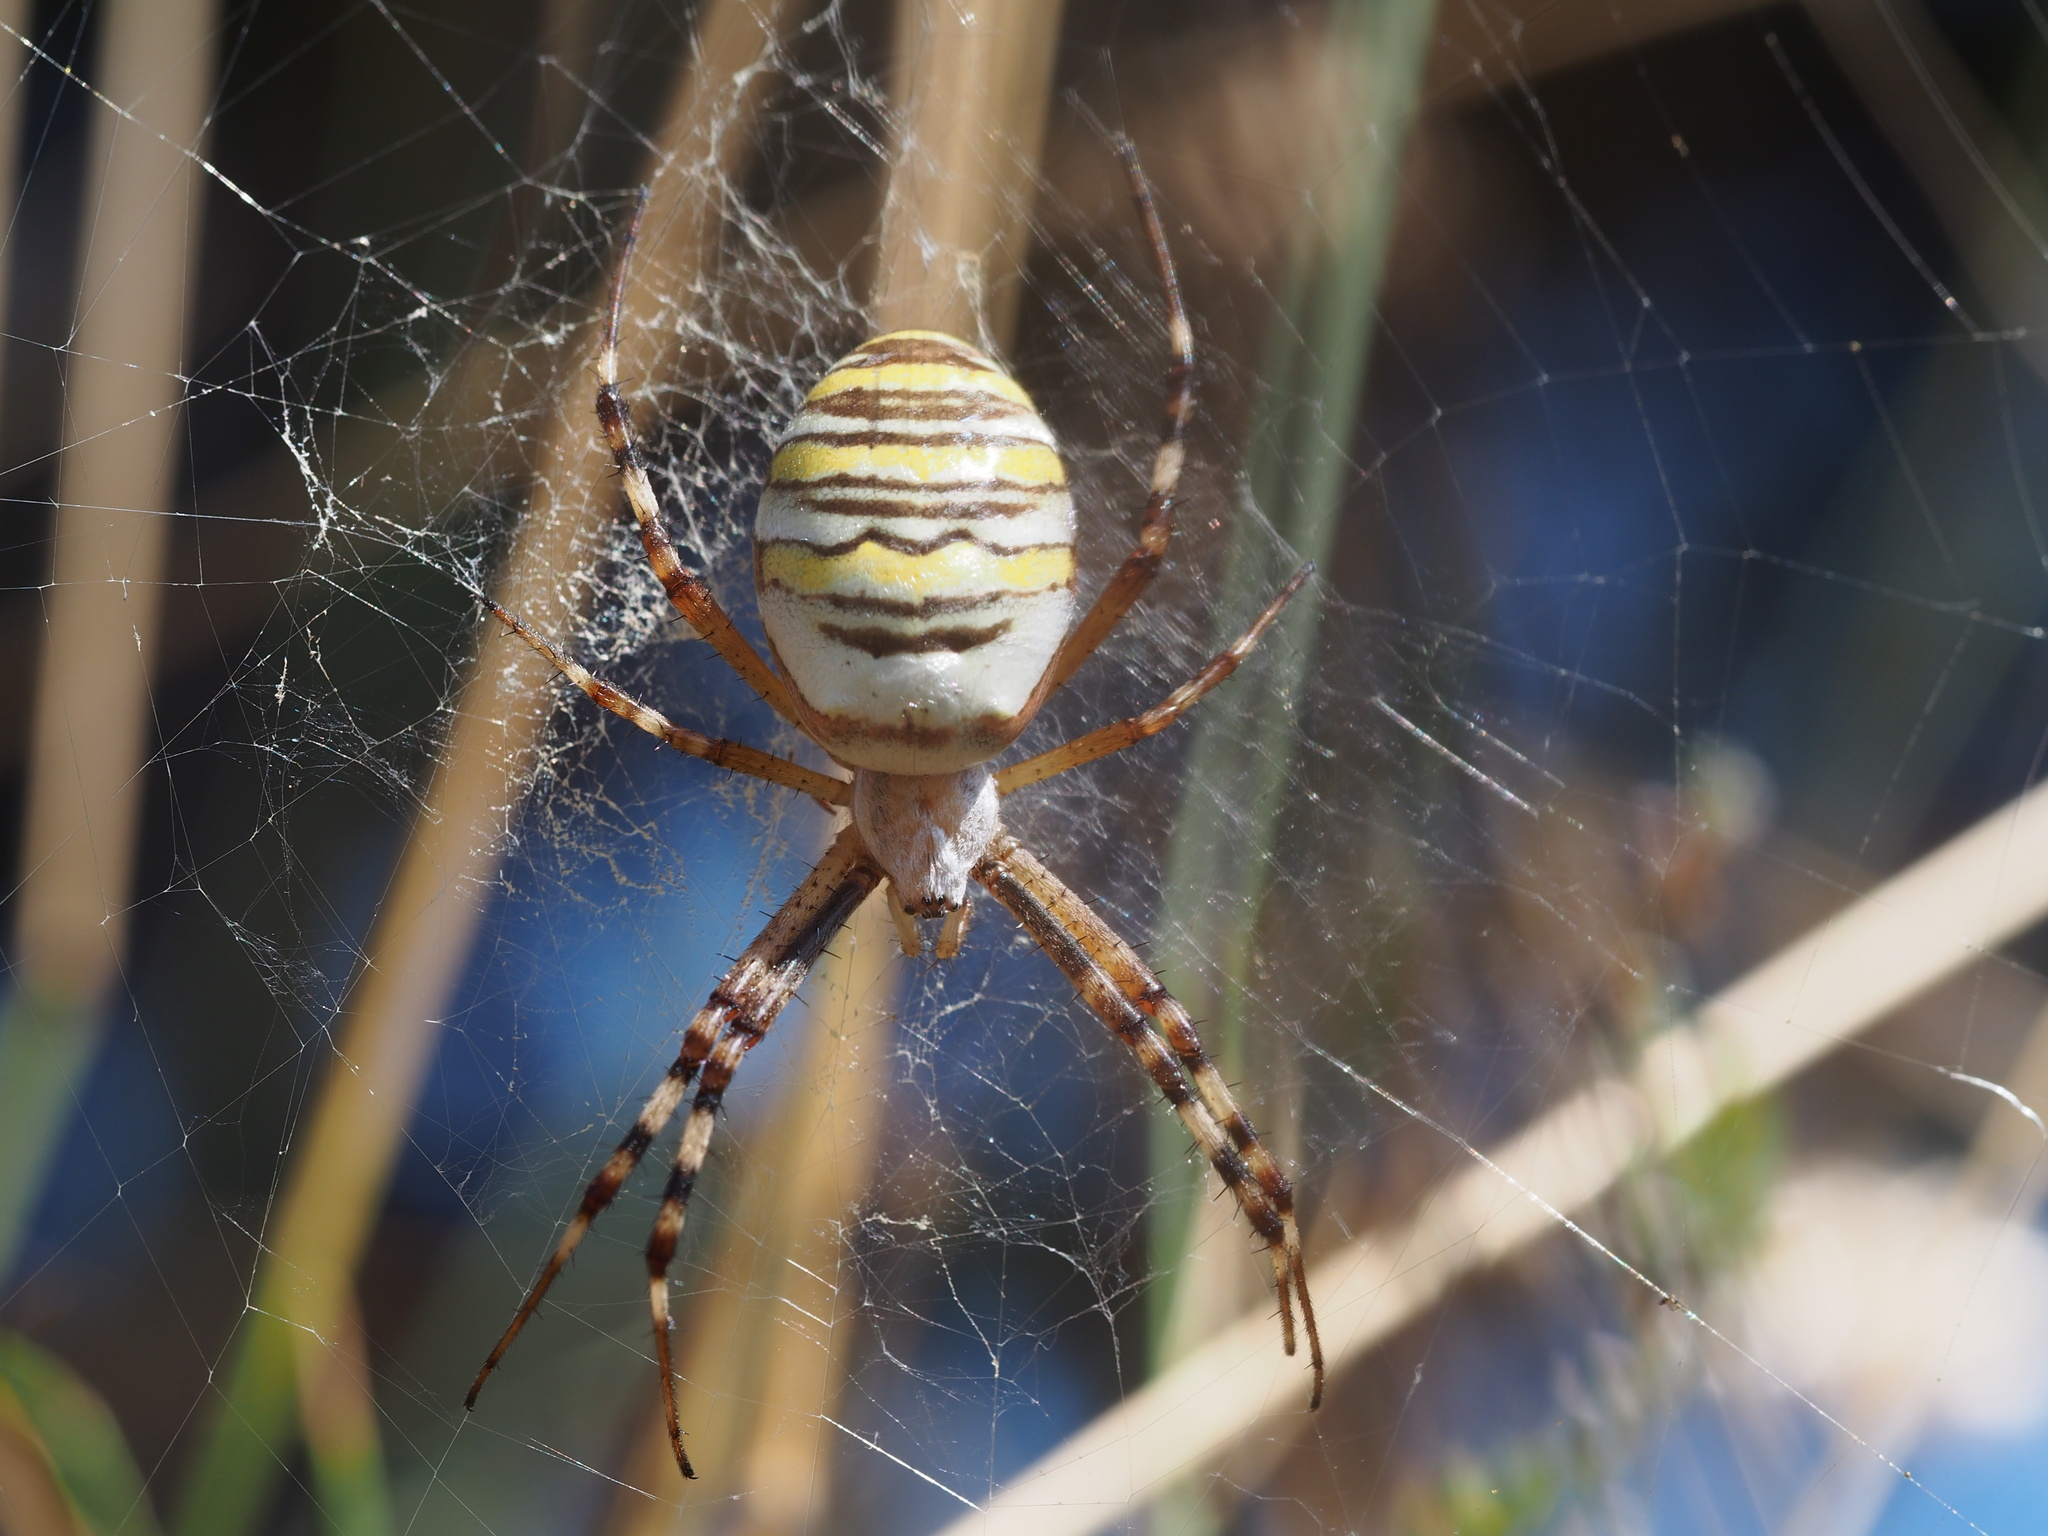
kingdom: Animalia
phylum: Arthropoda
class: Arachnida
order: Araneae
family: Araneidae
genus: Argiope
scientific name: Argiope bruennichi
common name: Wasp spider
